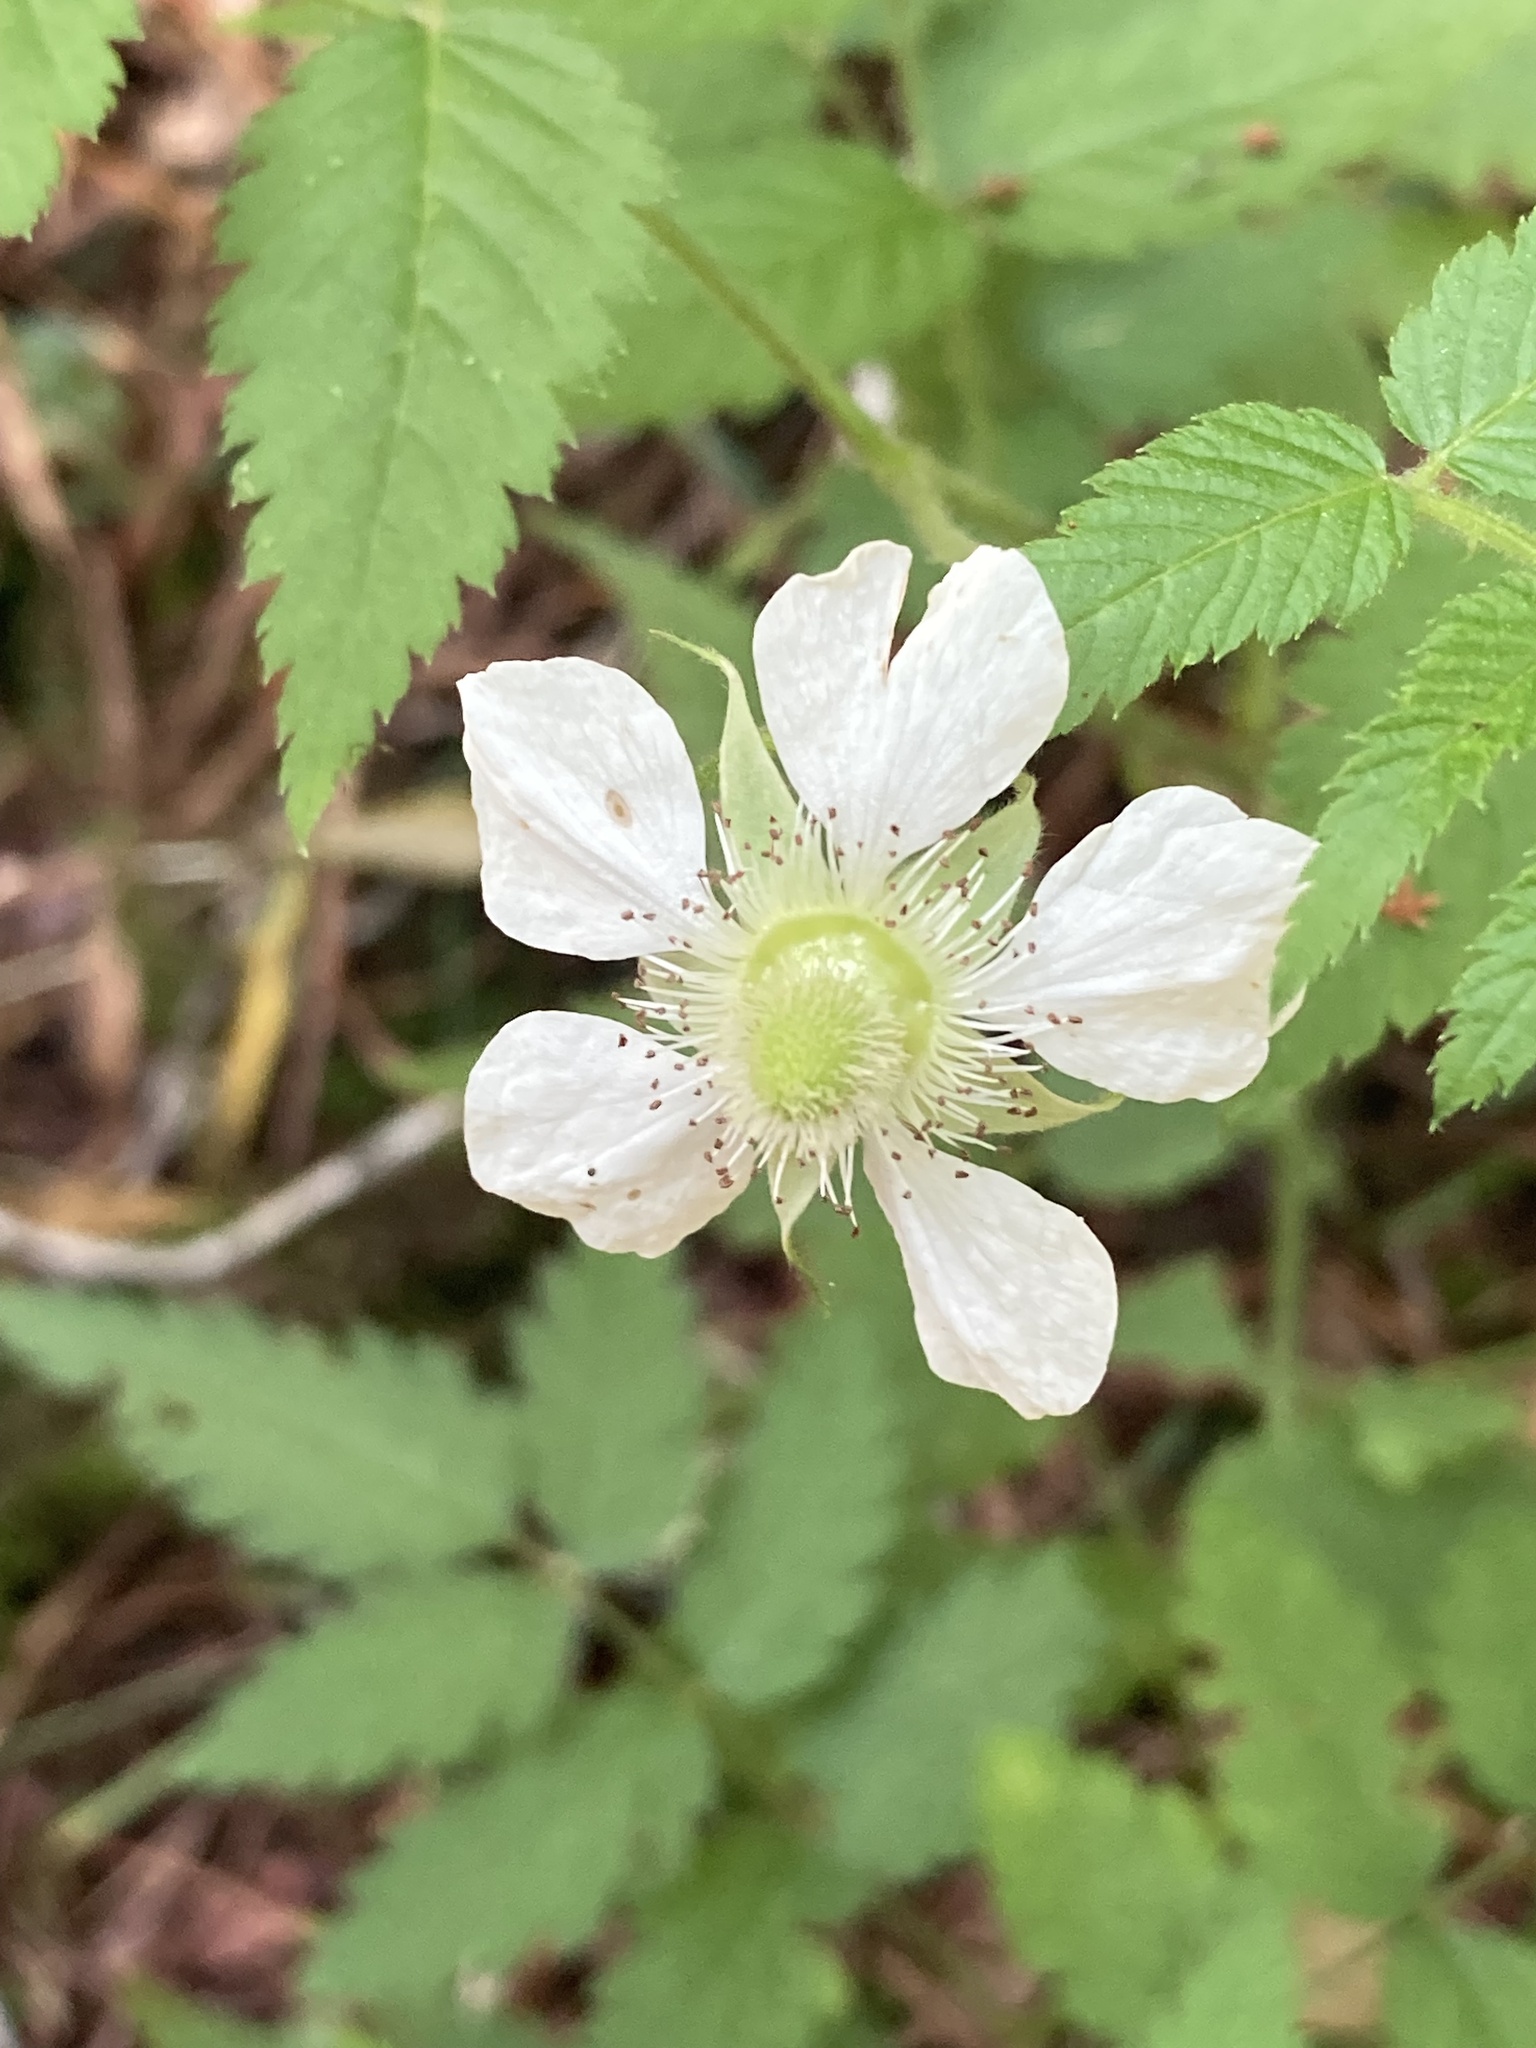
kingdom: Plantae
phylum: Tracheophyta
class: Magnoliopsida
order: Rosales
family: Rosaceae
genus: Rubus
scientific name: Rubus rosifolius
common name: Roseleaf raspberry
